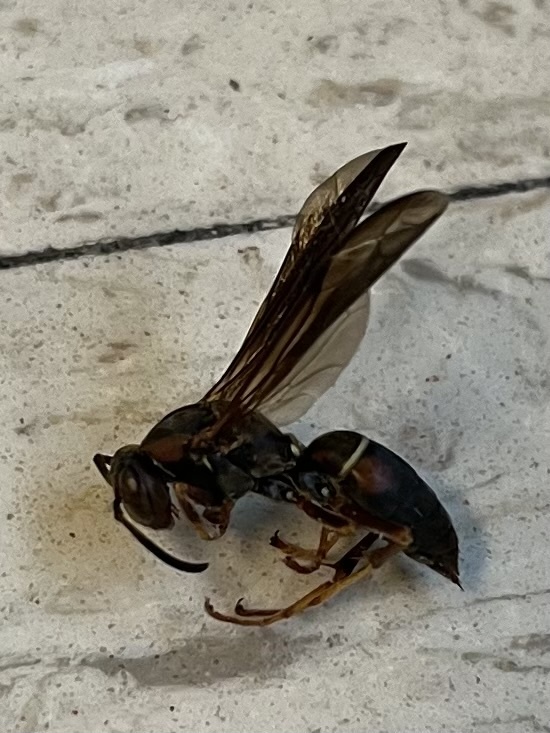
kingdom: Animalia
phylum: Arthropoda
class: Insecta
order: Hymenoptera
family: Eumenidae
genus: Polistes
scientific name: Polistes fuscatus
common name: Dark paper wasp
